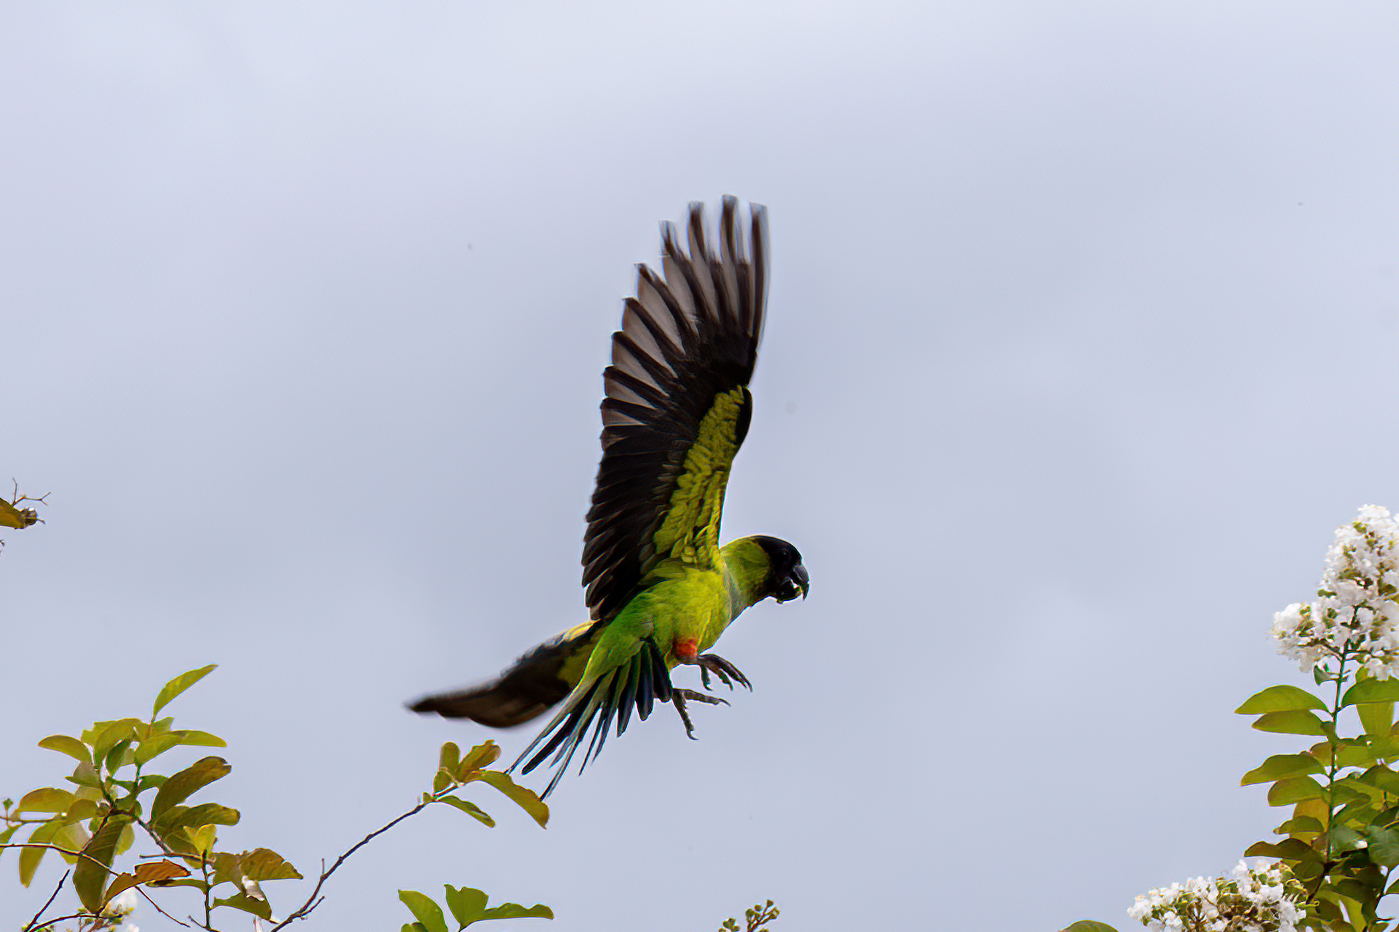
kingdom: Animalia
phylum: Chordata
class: Aves
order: Psittaciformes
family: Psittacidae
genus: Nandayus
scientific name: Nandayus nenday
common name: Nanday parakeet
